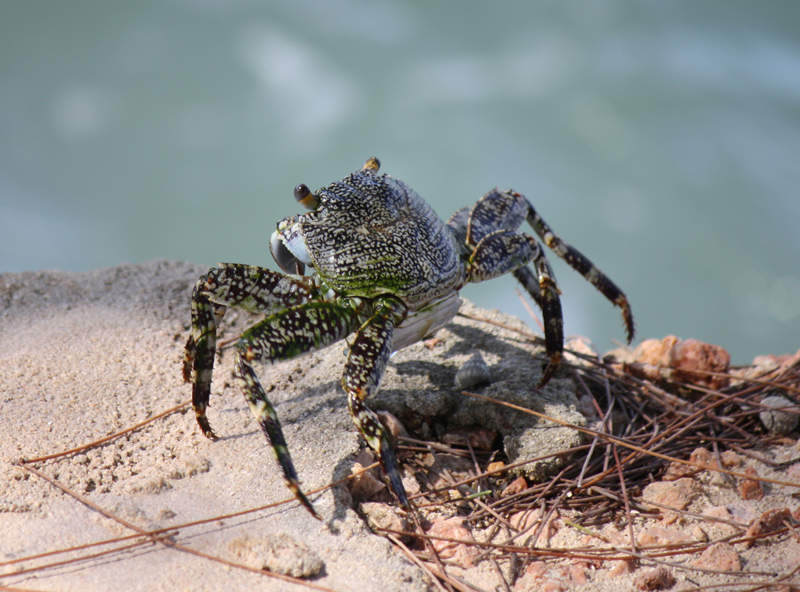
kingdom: Animalia
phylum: Arthropoda
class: Malacostraca
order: Decapoda
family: Grapsidae
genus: Grapsus
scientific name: Grapsus grapsus
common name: Sally lightfoot
